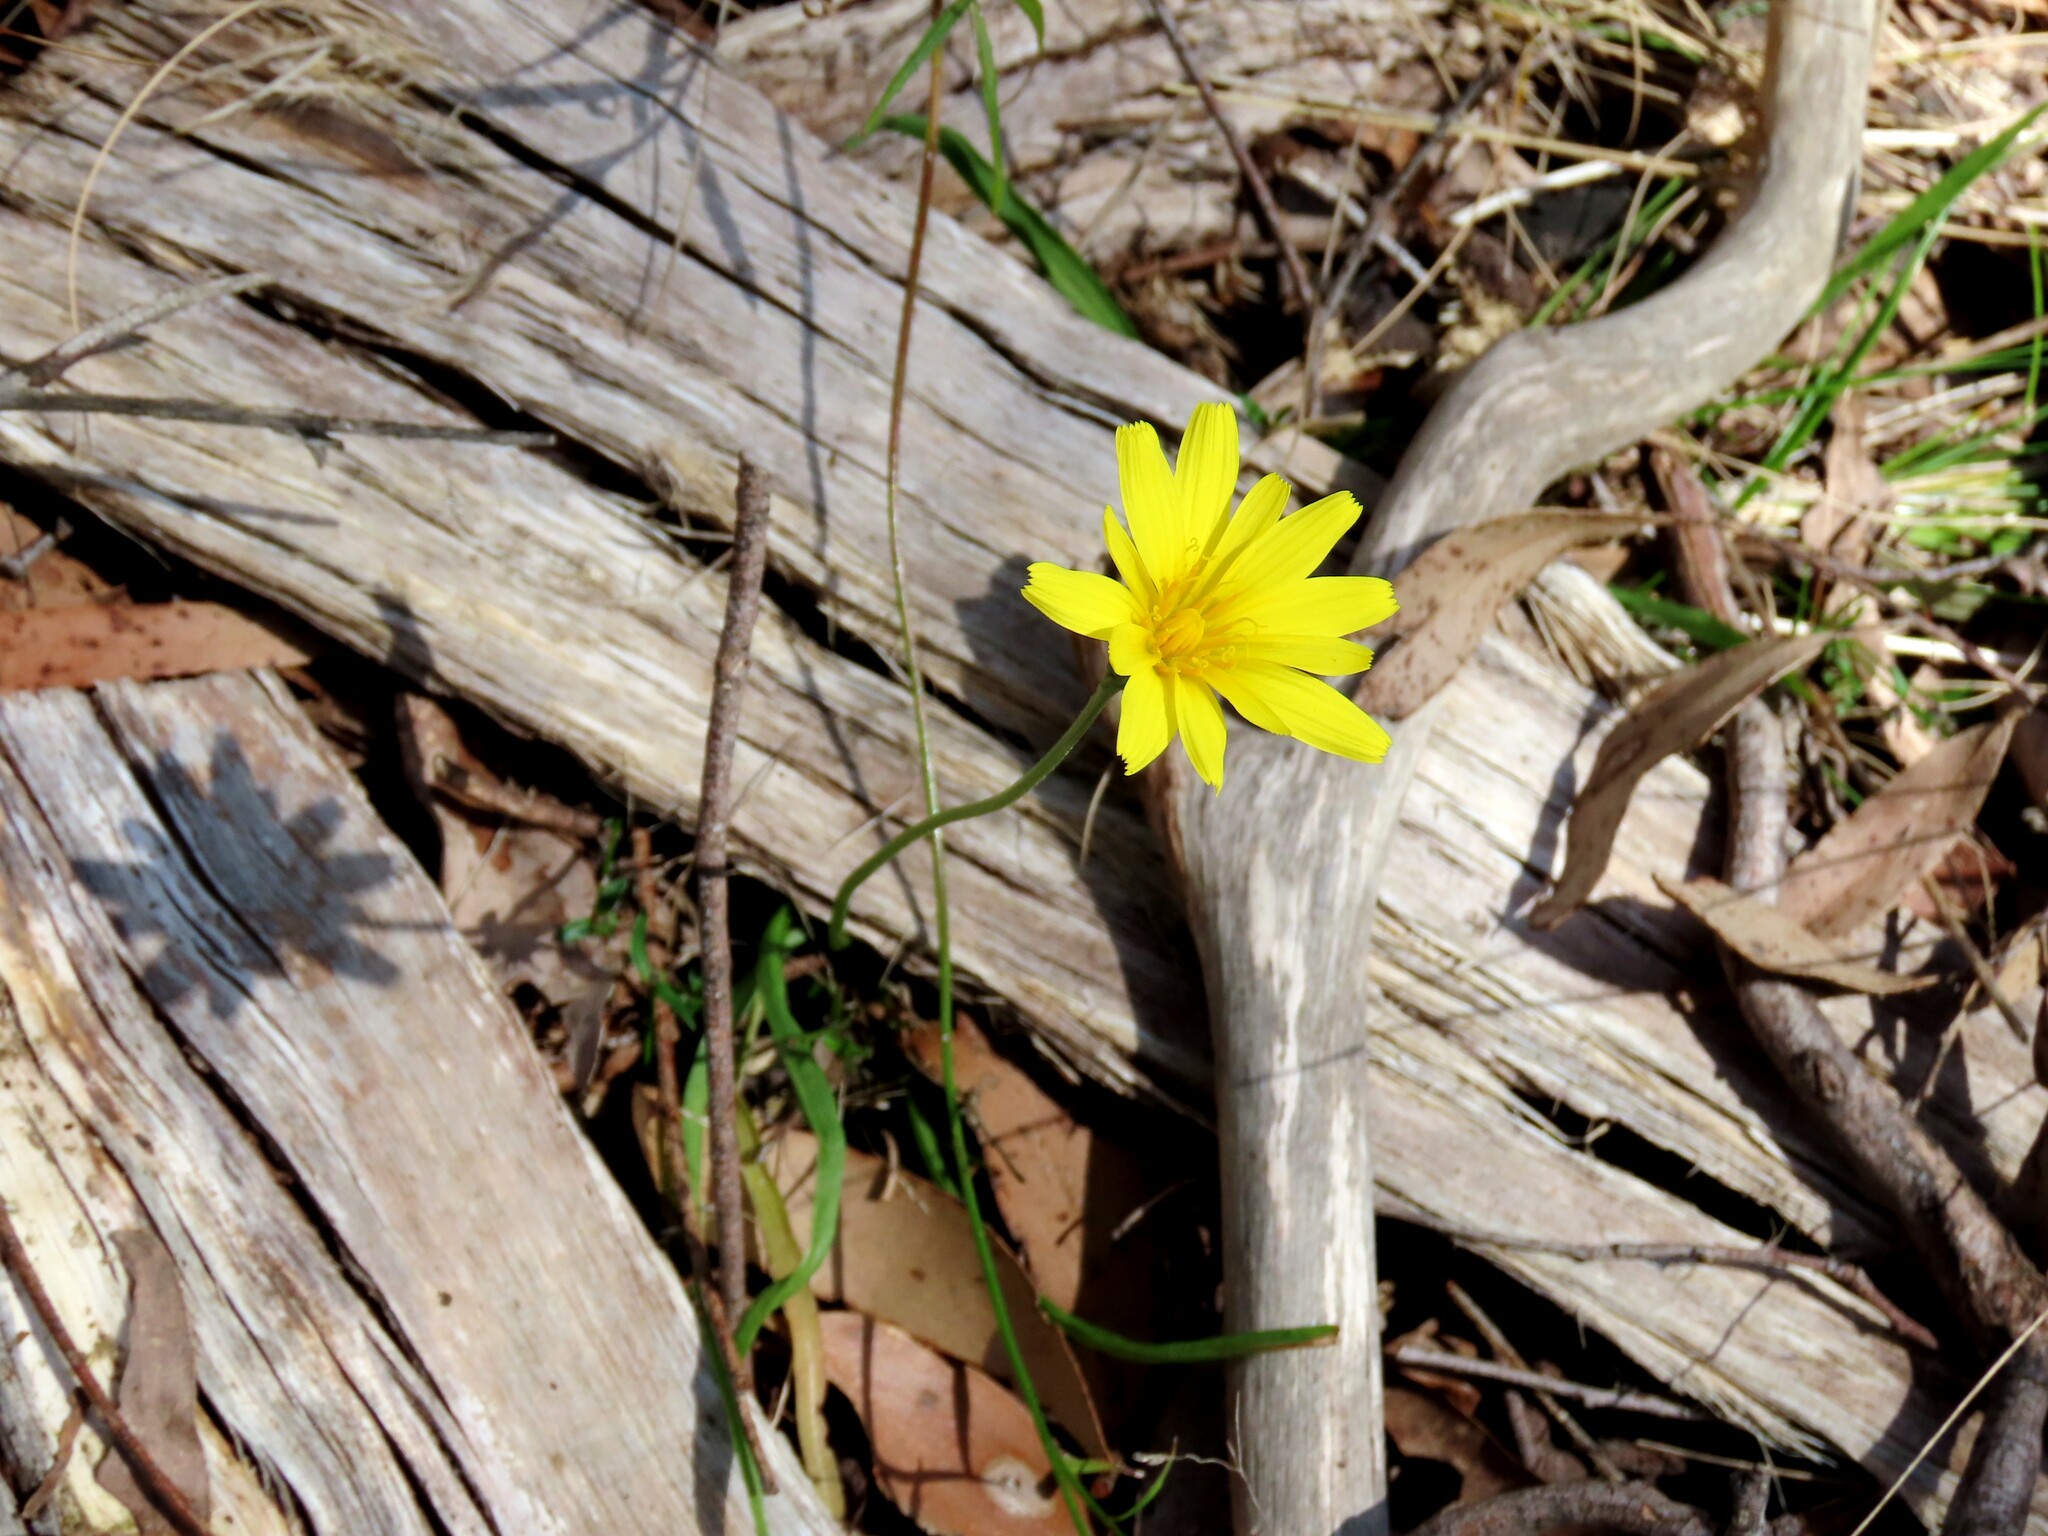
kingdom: Plantae
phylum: Tracheophyta
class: Magnoliopsida
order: Asterales
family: Asteraceae
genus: Microseris
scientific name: Microseris lanceolata
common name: Yam daisy
